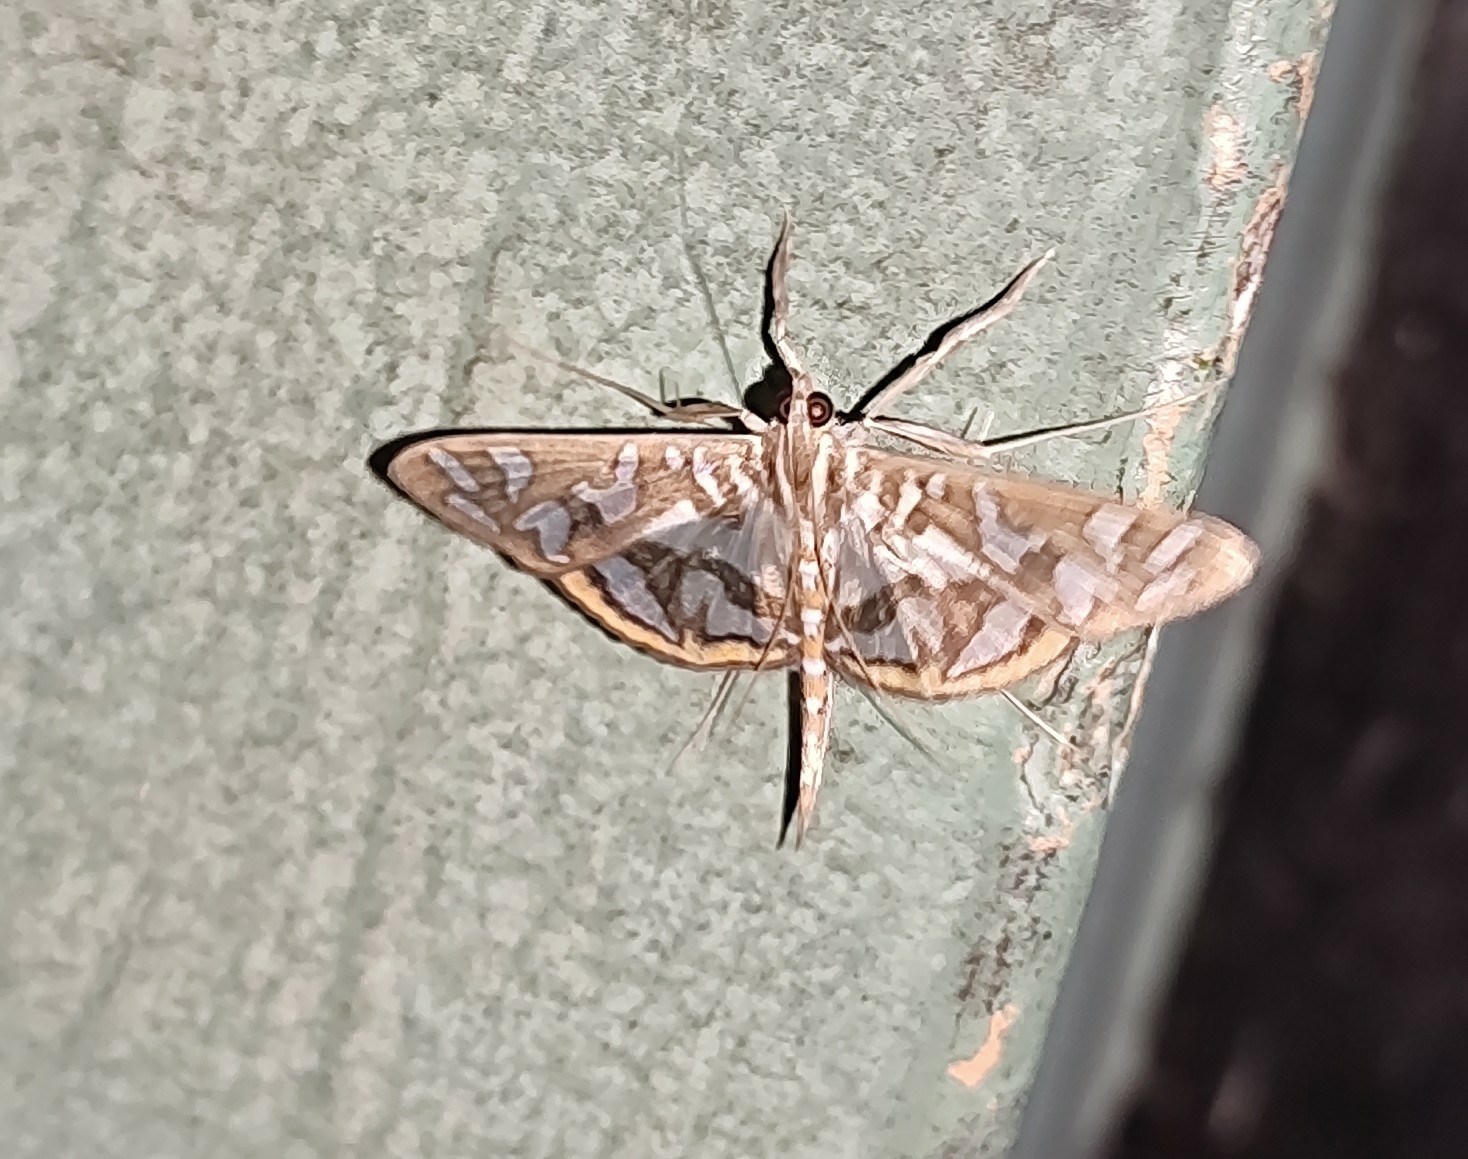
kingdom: Animalia
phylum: Arthropoda
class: Insecta
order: Lepidoptera
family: Crambidae
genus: Nausinoe
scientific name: Nausinoe perspectata
